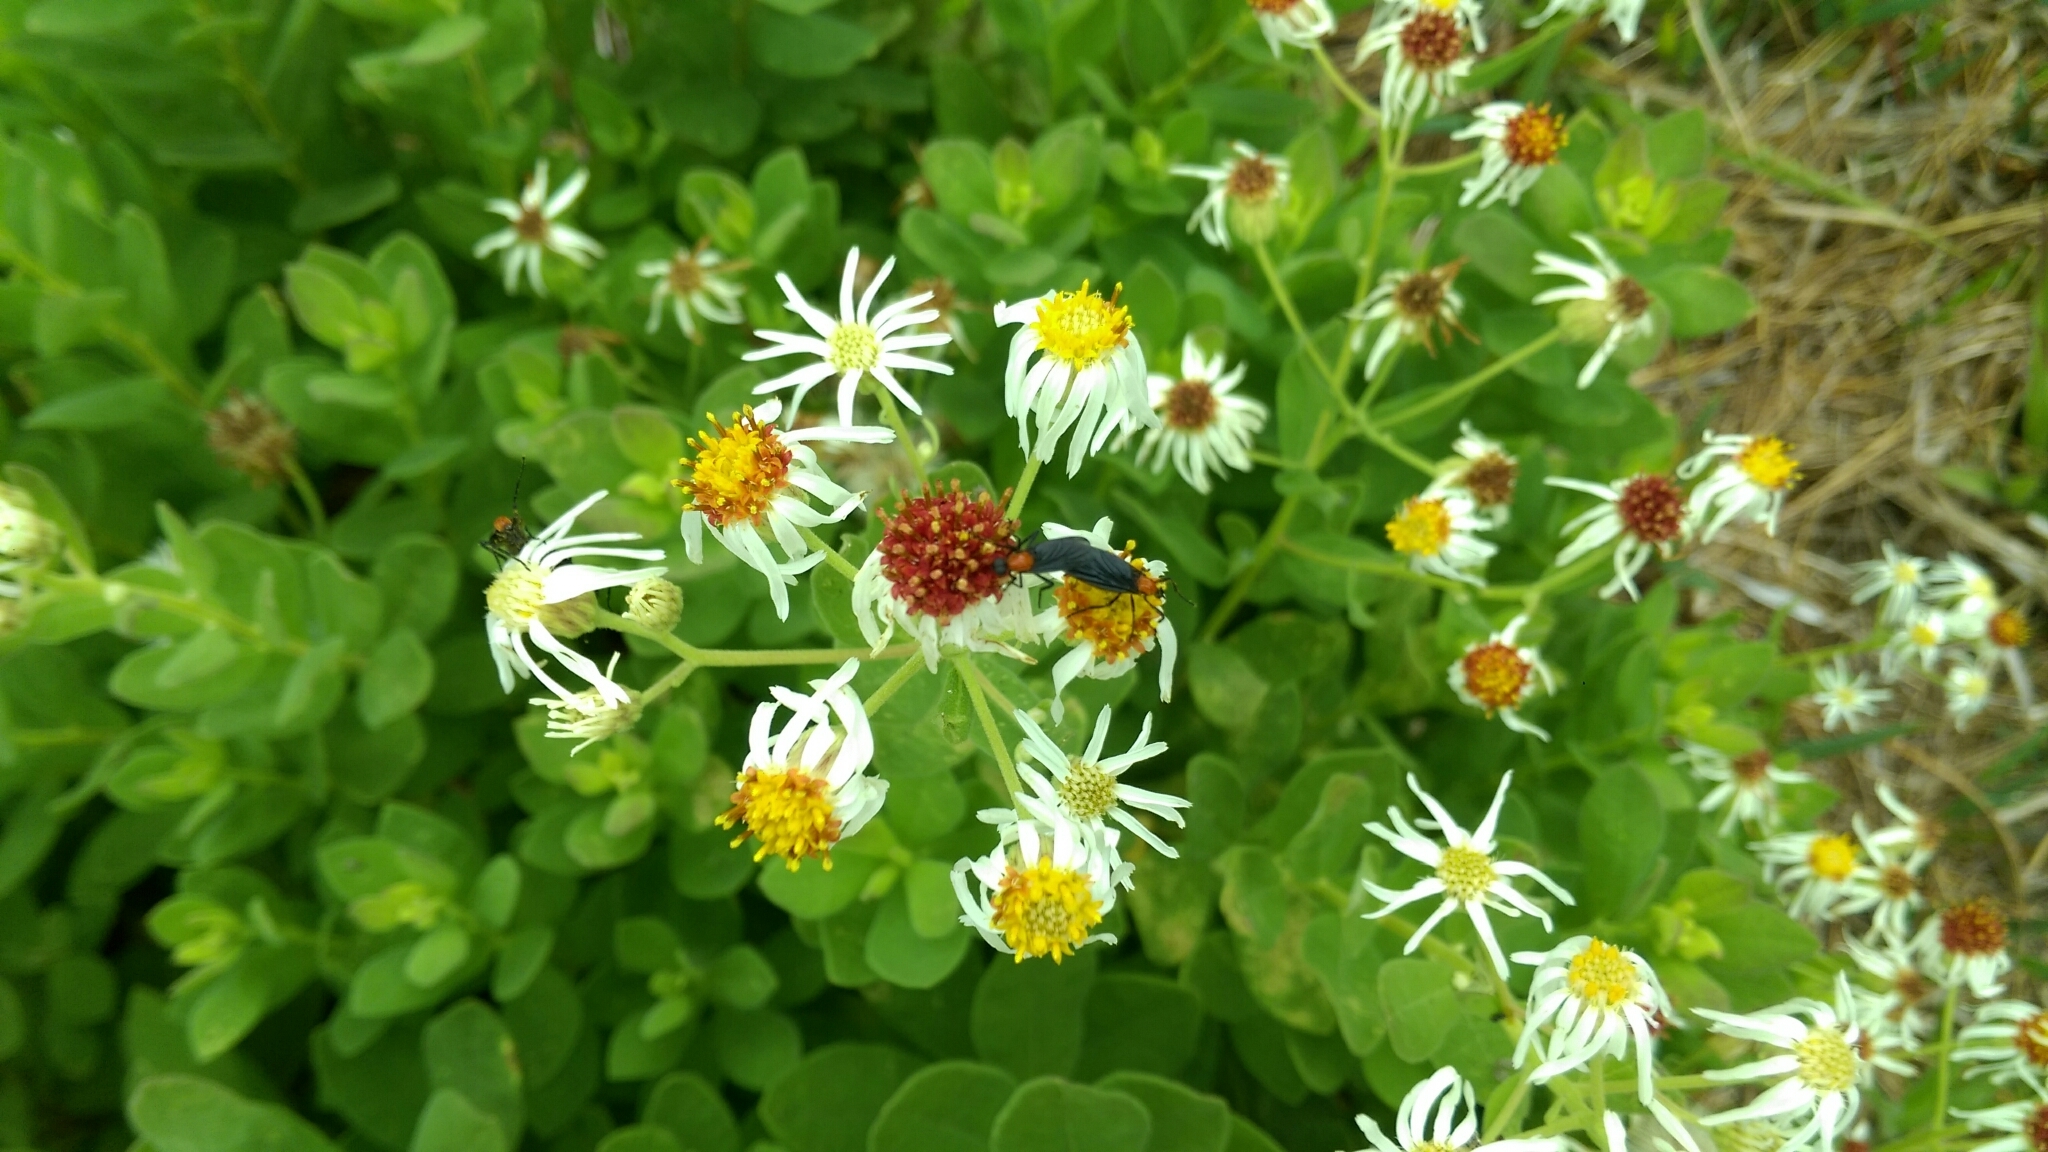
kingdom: Animalia
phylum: Arthropoda
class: Insecta
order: Diptera
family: Bibionidae
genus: Plecia
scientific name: Plecia nearctica
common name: March fly
